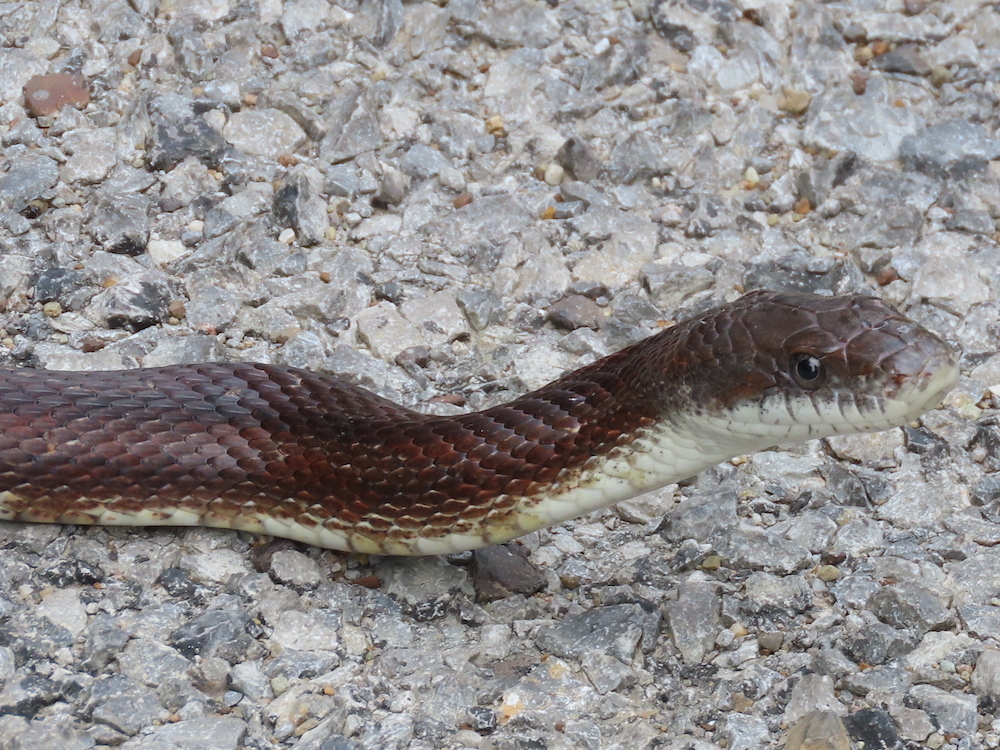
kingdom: Animalia
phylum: Chordata
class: Squamata
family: Colubridae
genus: Pantherophis
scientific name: Pantherophis spiloides
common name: Gray rat snake
